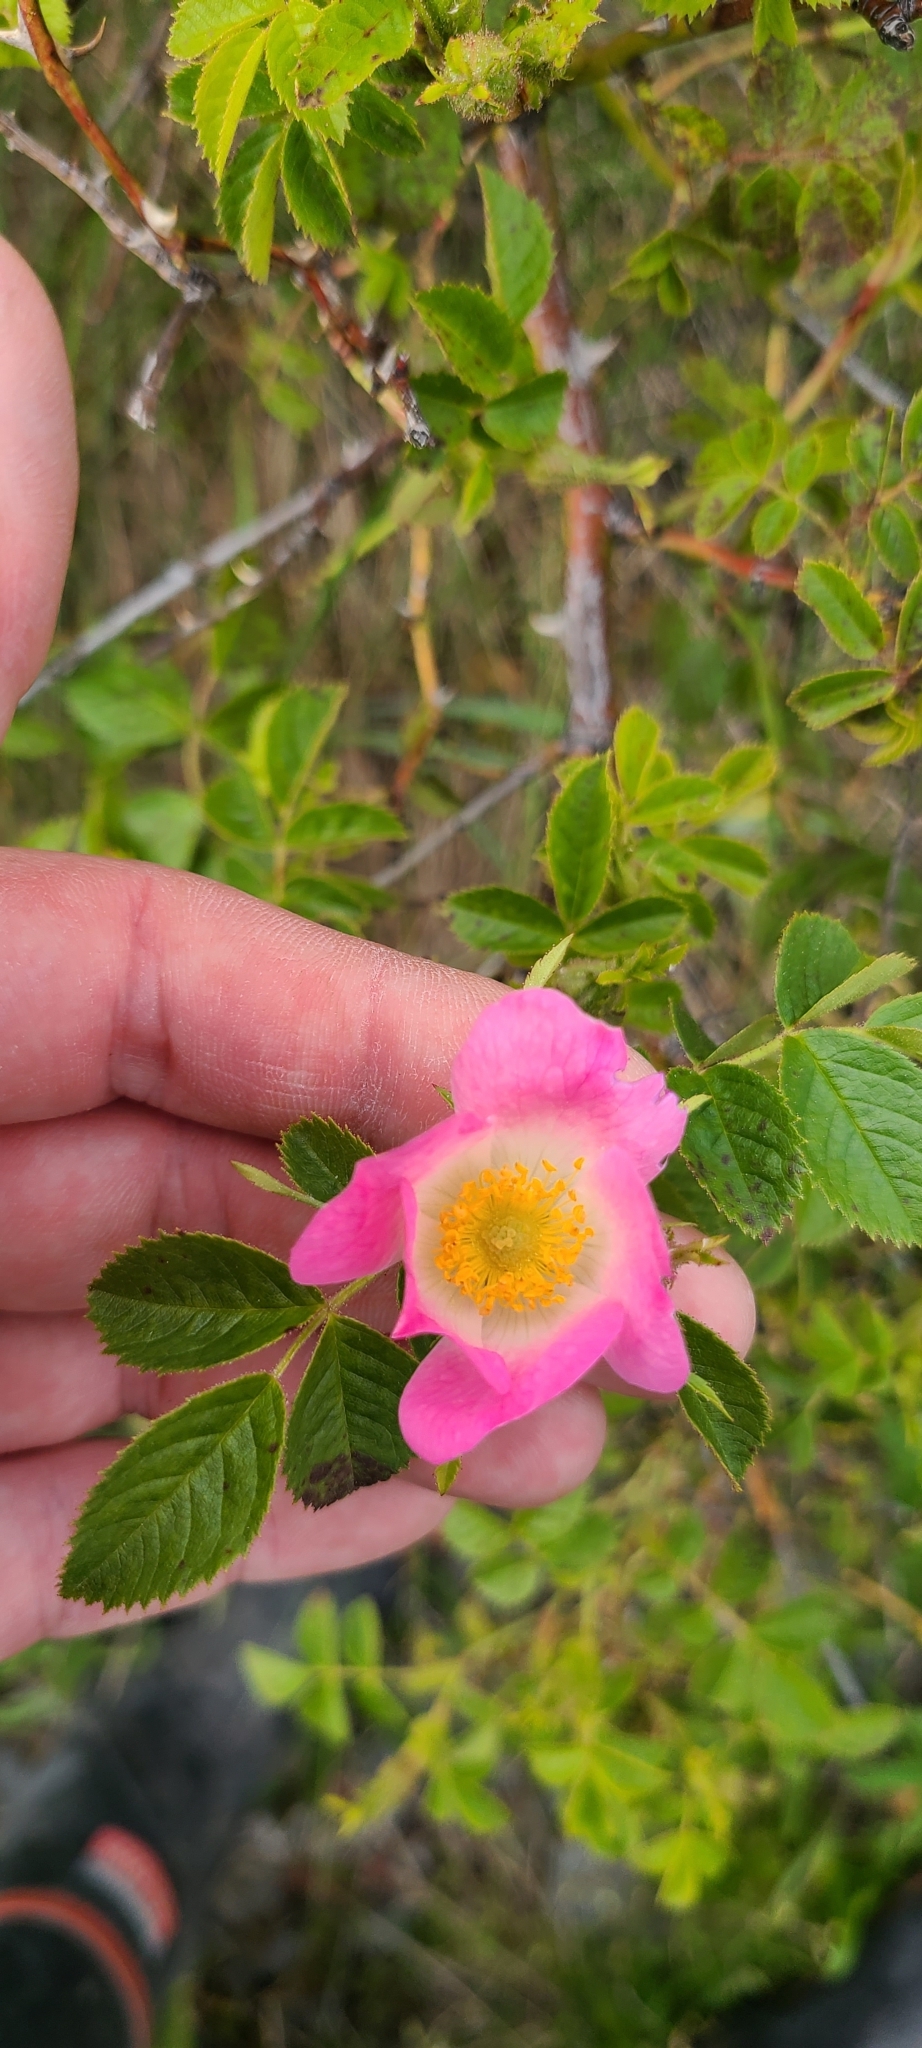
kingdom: Plantae
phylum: Tracheophyta
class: Magnoliopsida
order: Rosales
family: Rosaceae
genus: Rosa
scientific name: Rosa rubiginosa
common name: Sweet-briar
